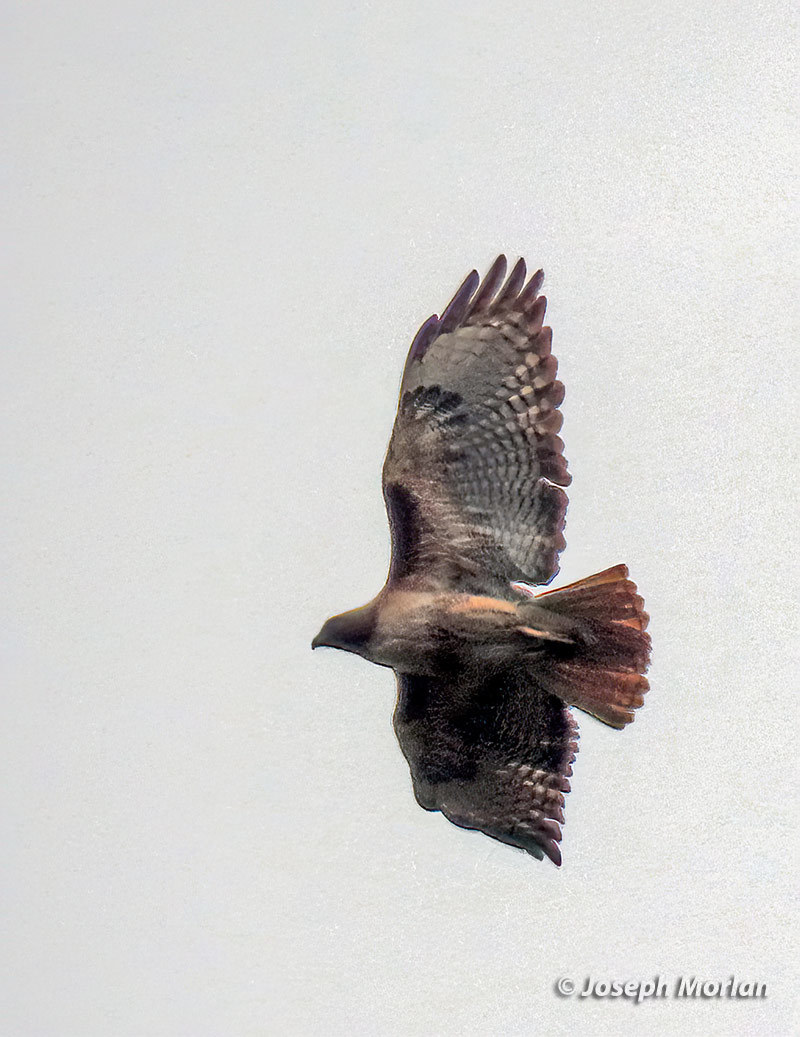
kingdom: Animalia
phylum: Chordata
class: Aves
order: Accipitriformes
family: Accipitridae
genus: Buteo
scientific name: Buteo jamaicensis
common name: Red-tailed hawk
